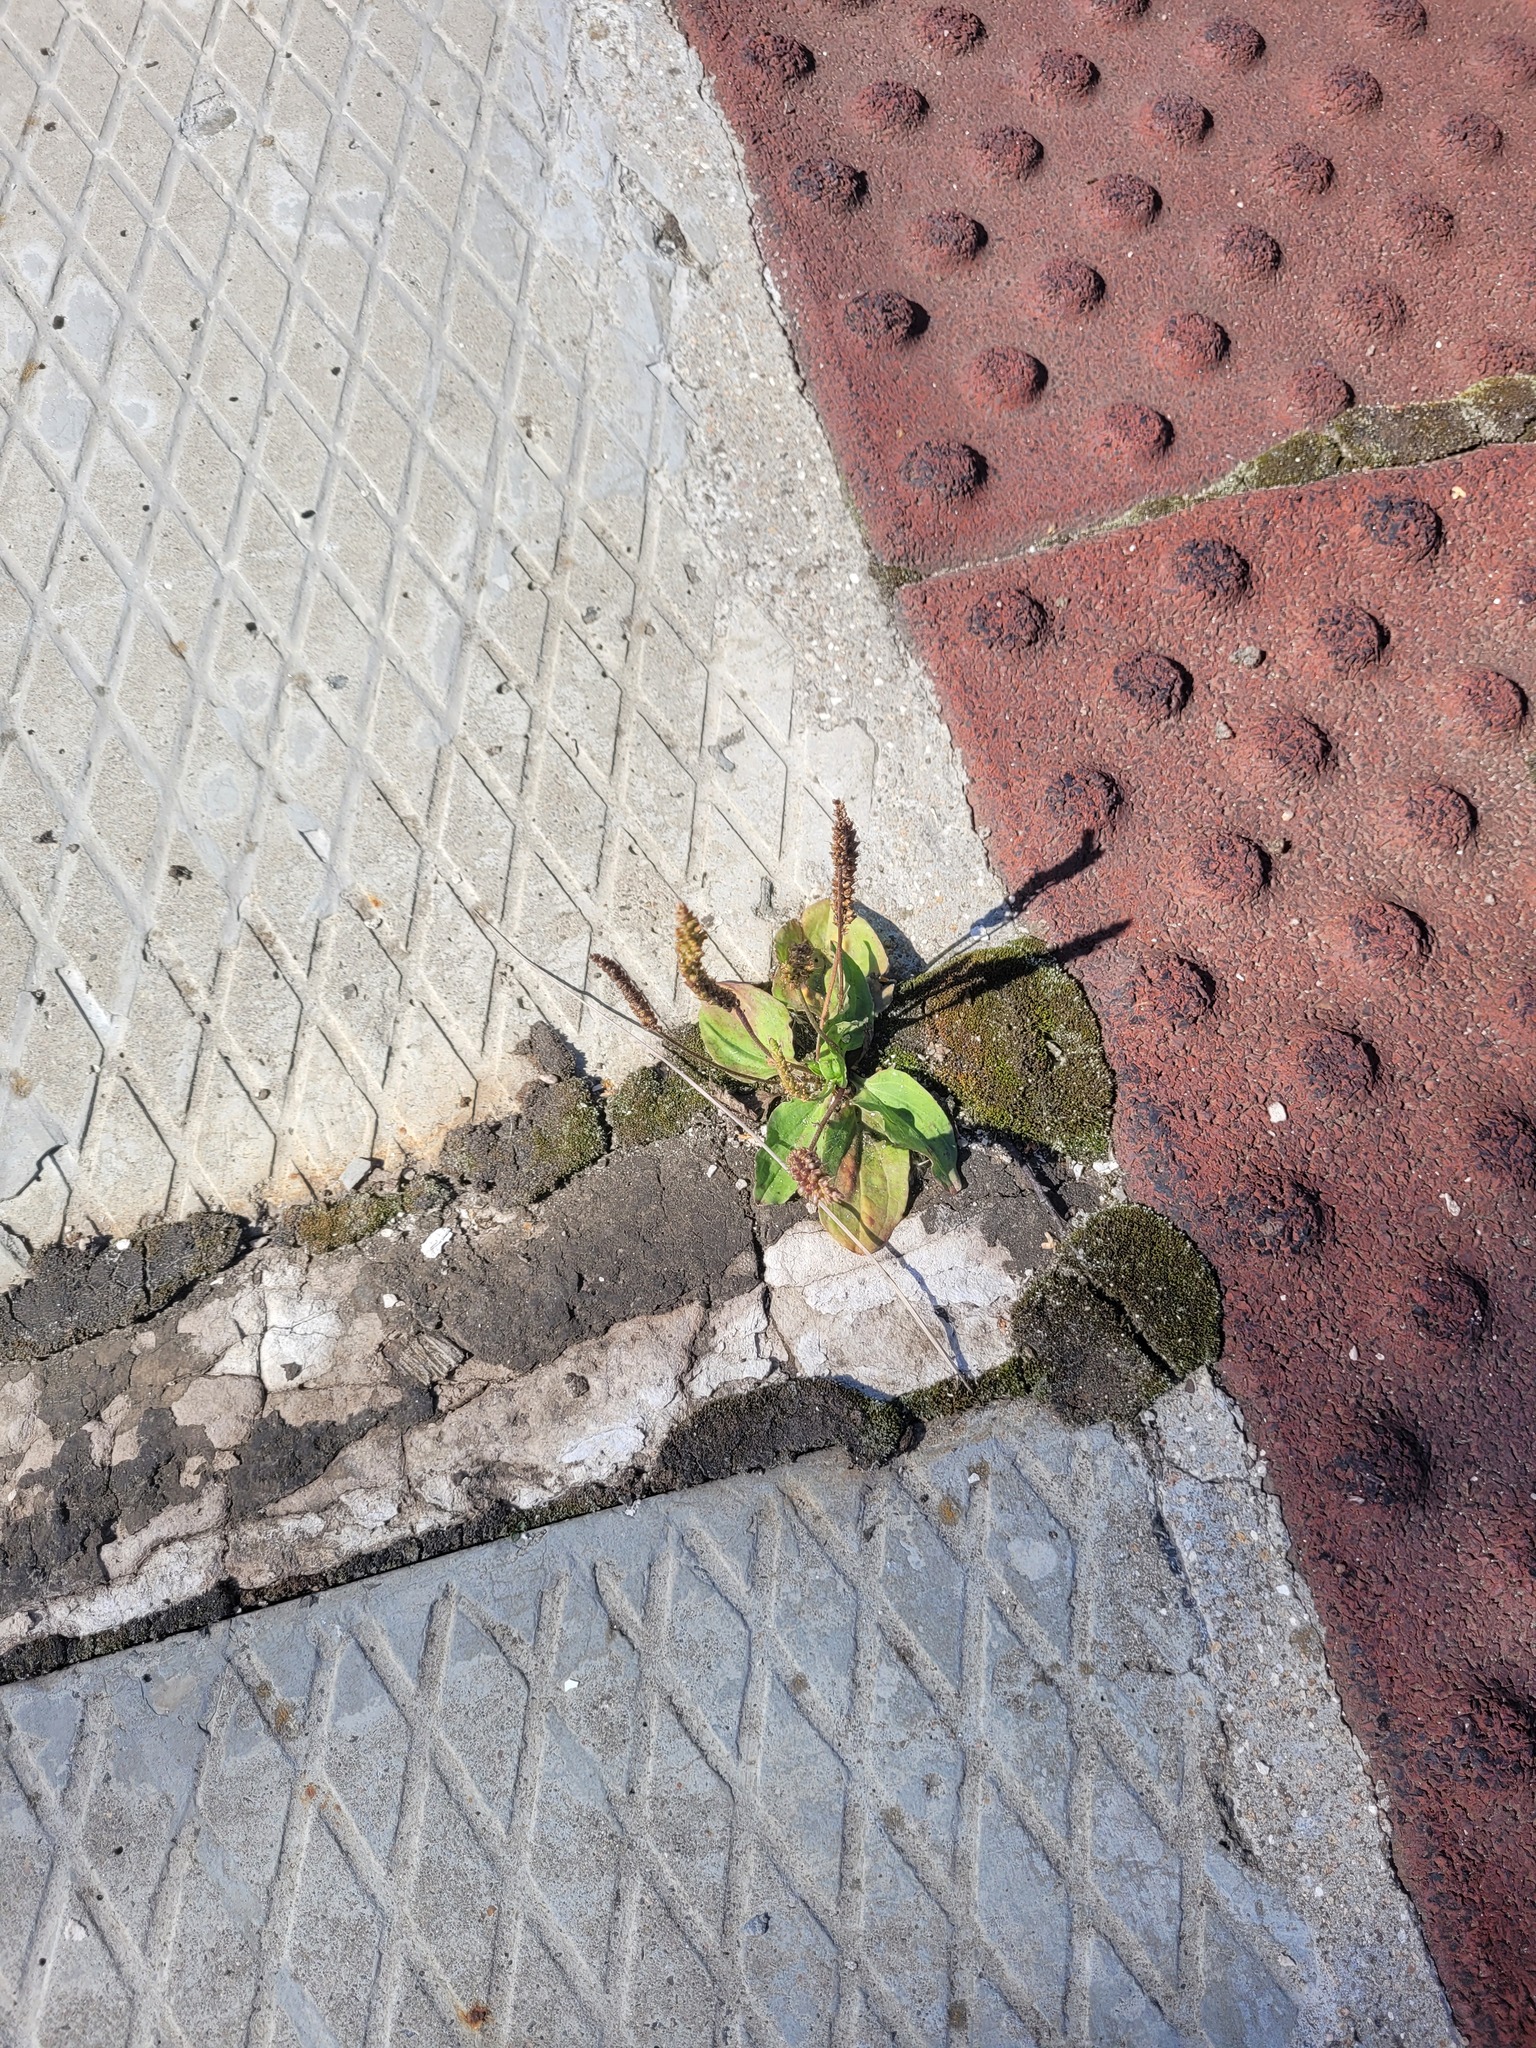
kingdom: Plantae
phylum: Tracheophyta
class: Magnoliopsida
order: Lamiales
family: Plantaginaceae
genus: Plantago
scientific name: Plantago major
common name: Common plantain
